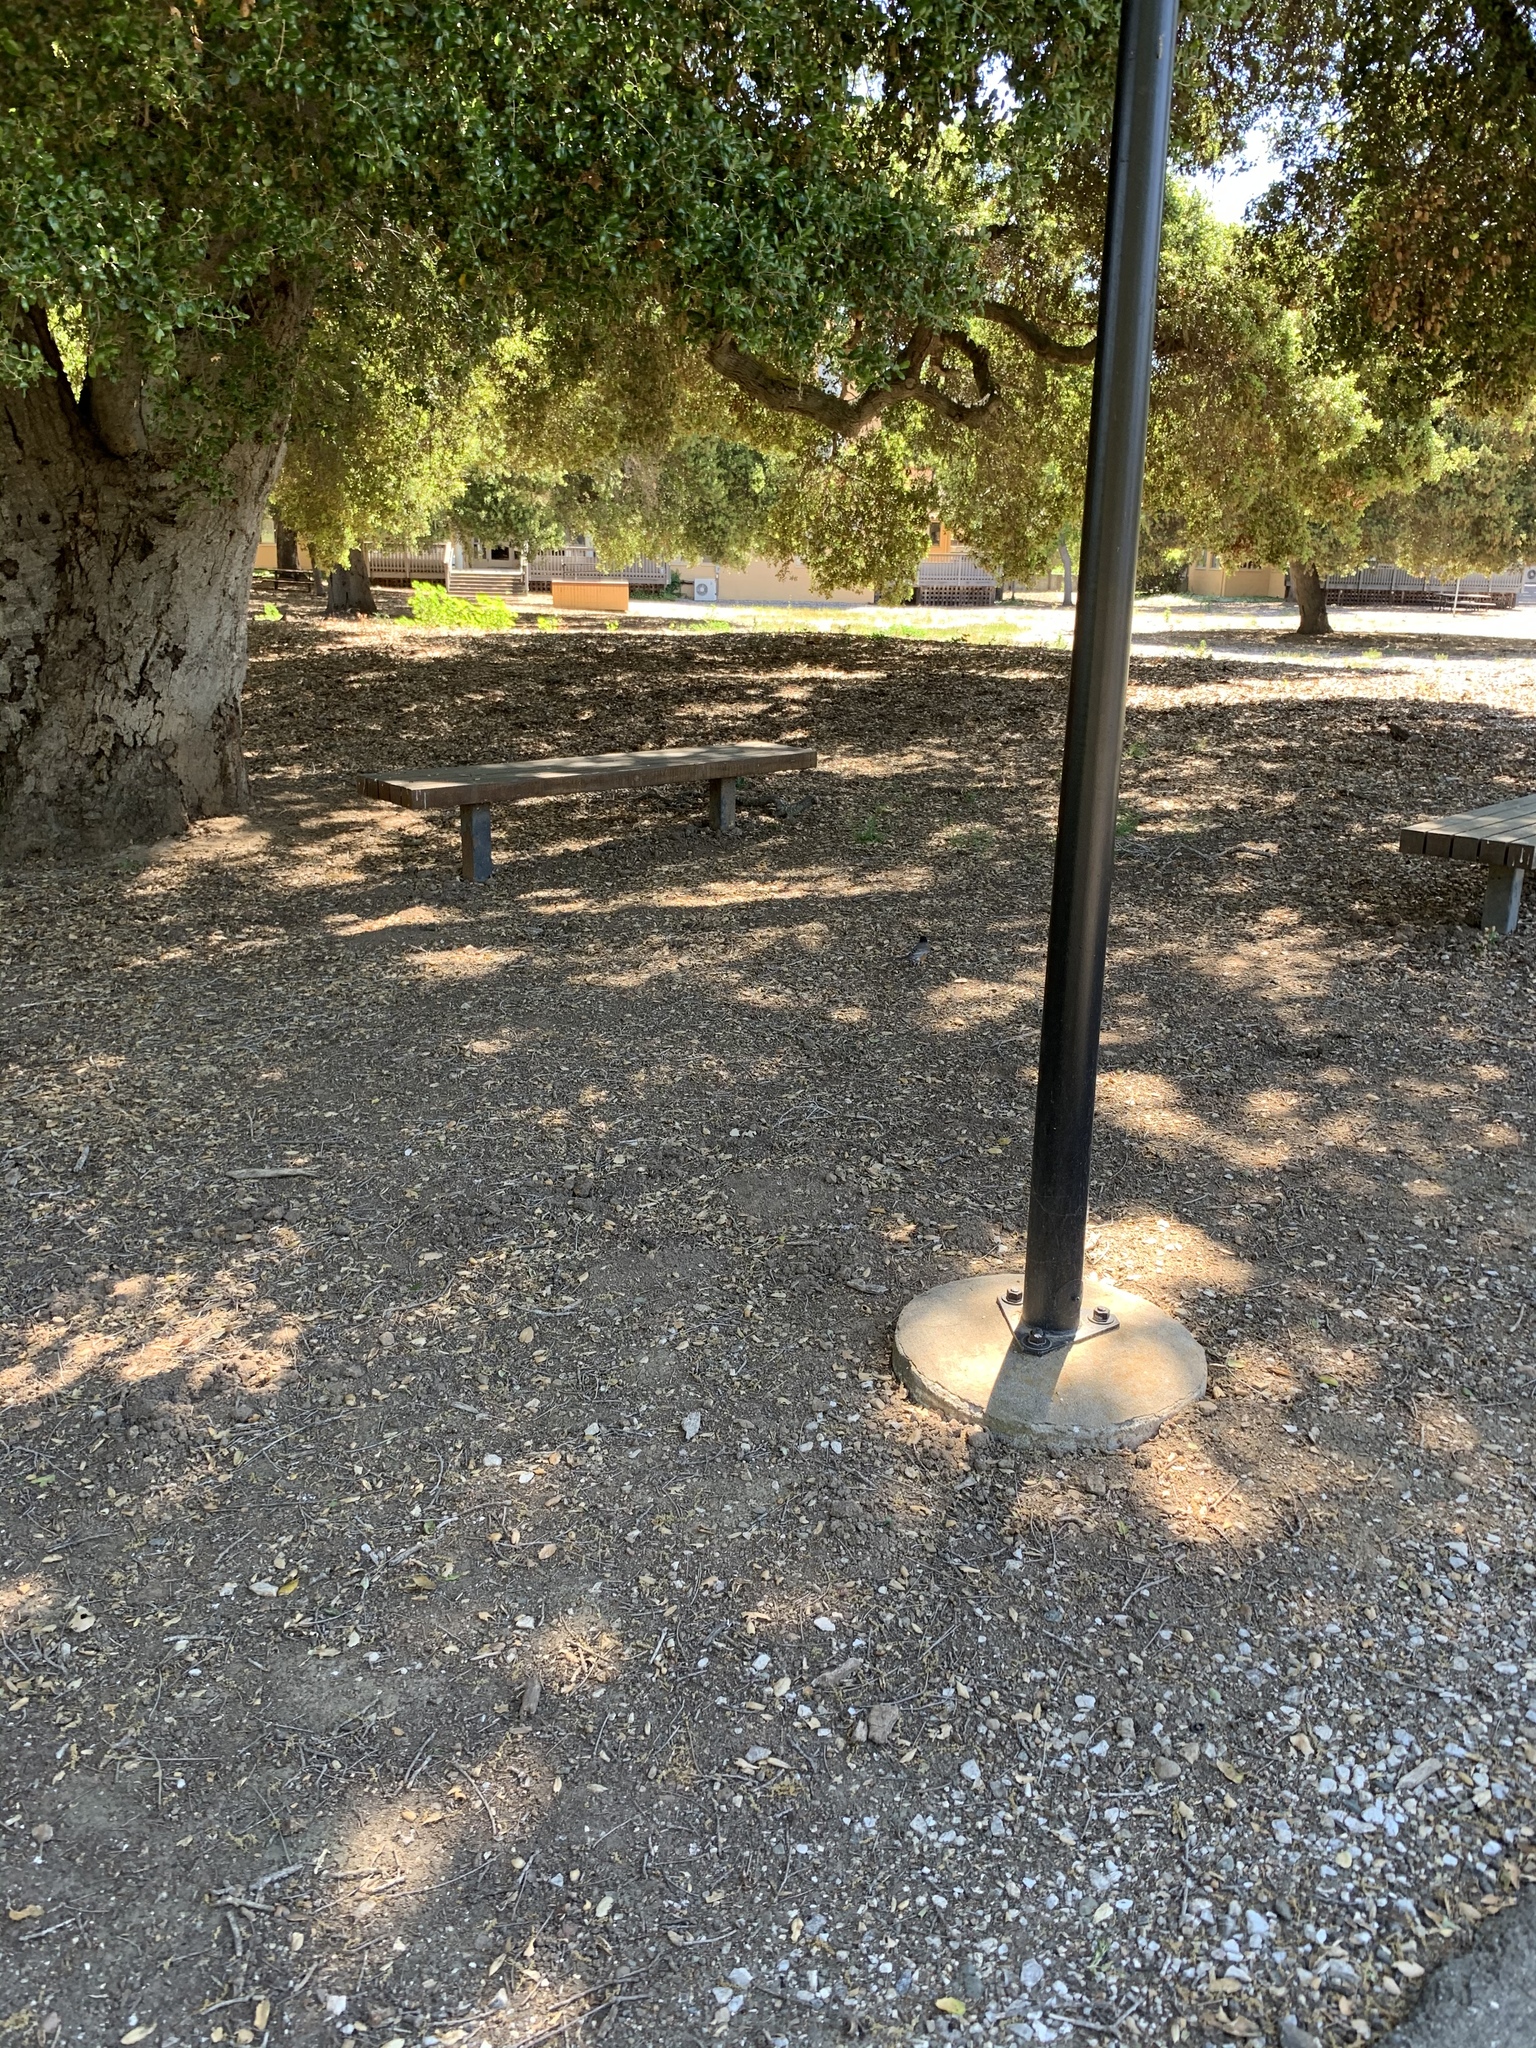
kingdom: Animalia
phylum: Chordata
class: Aves
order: Passeriformes
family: Turdidae
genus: Turdus
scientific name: Turdus migratorius
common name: American robin
